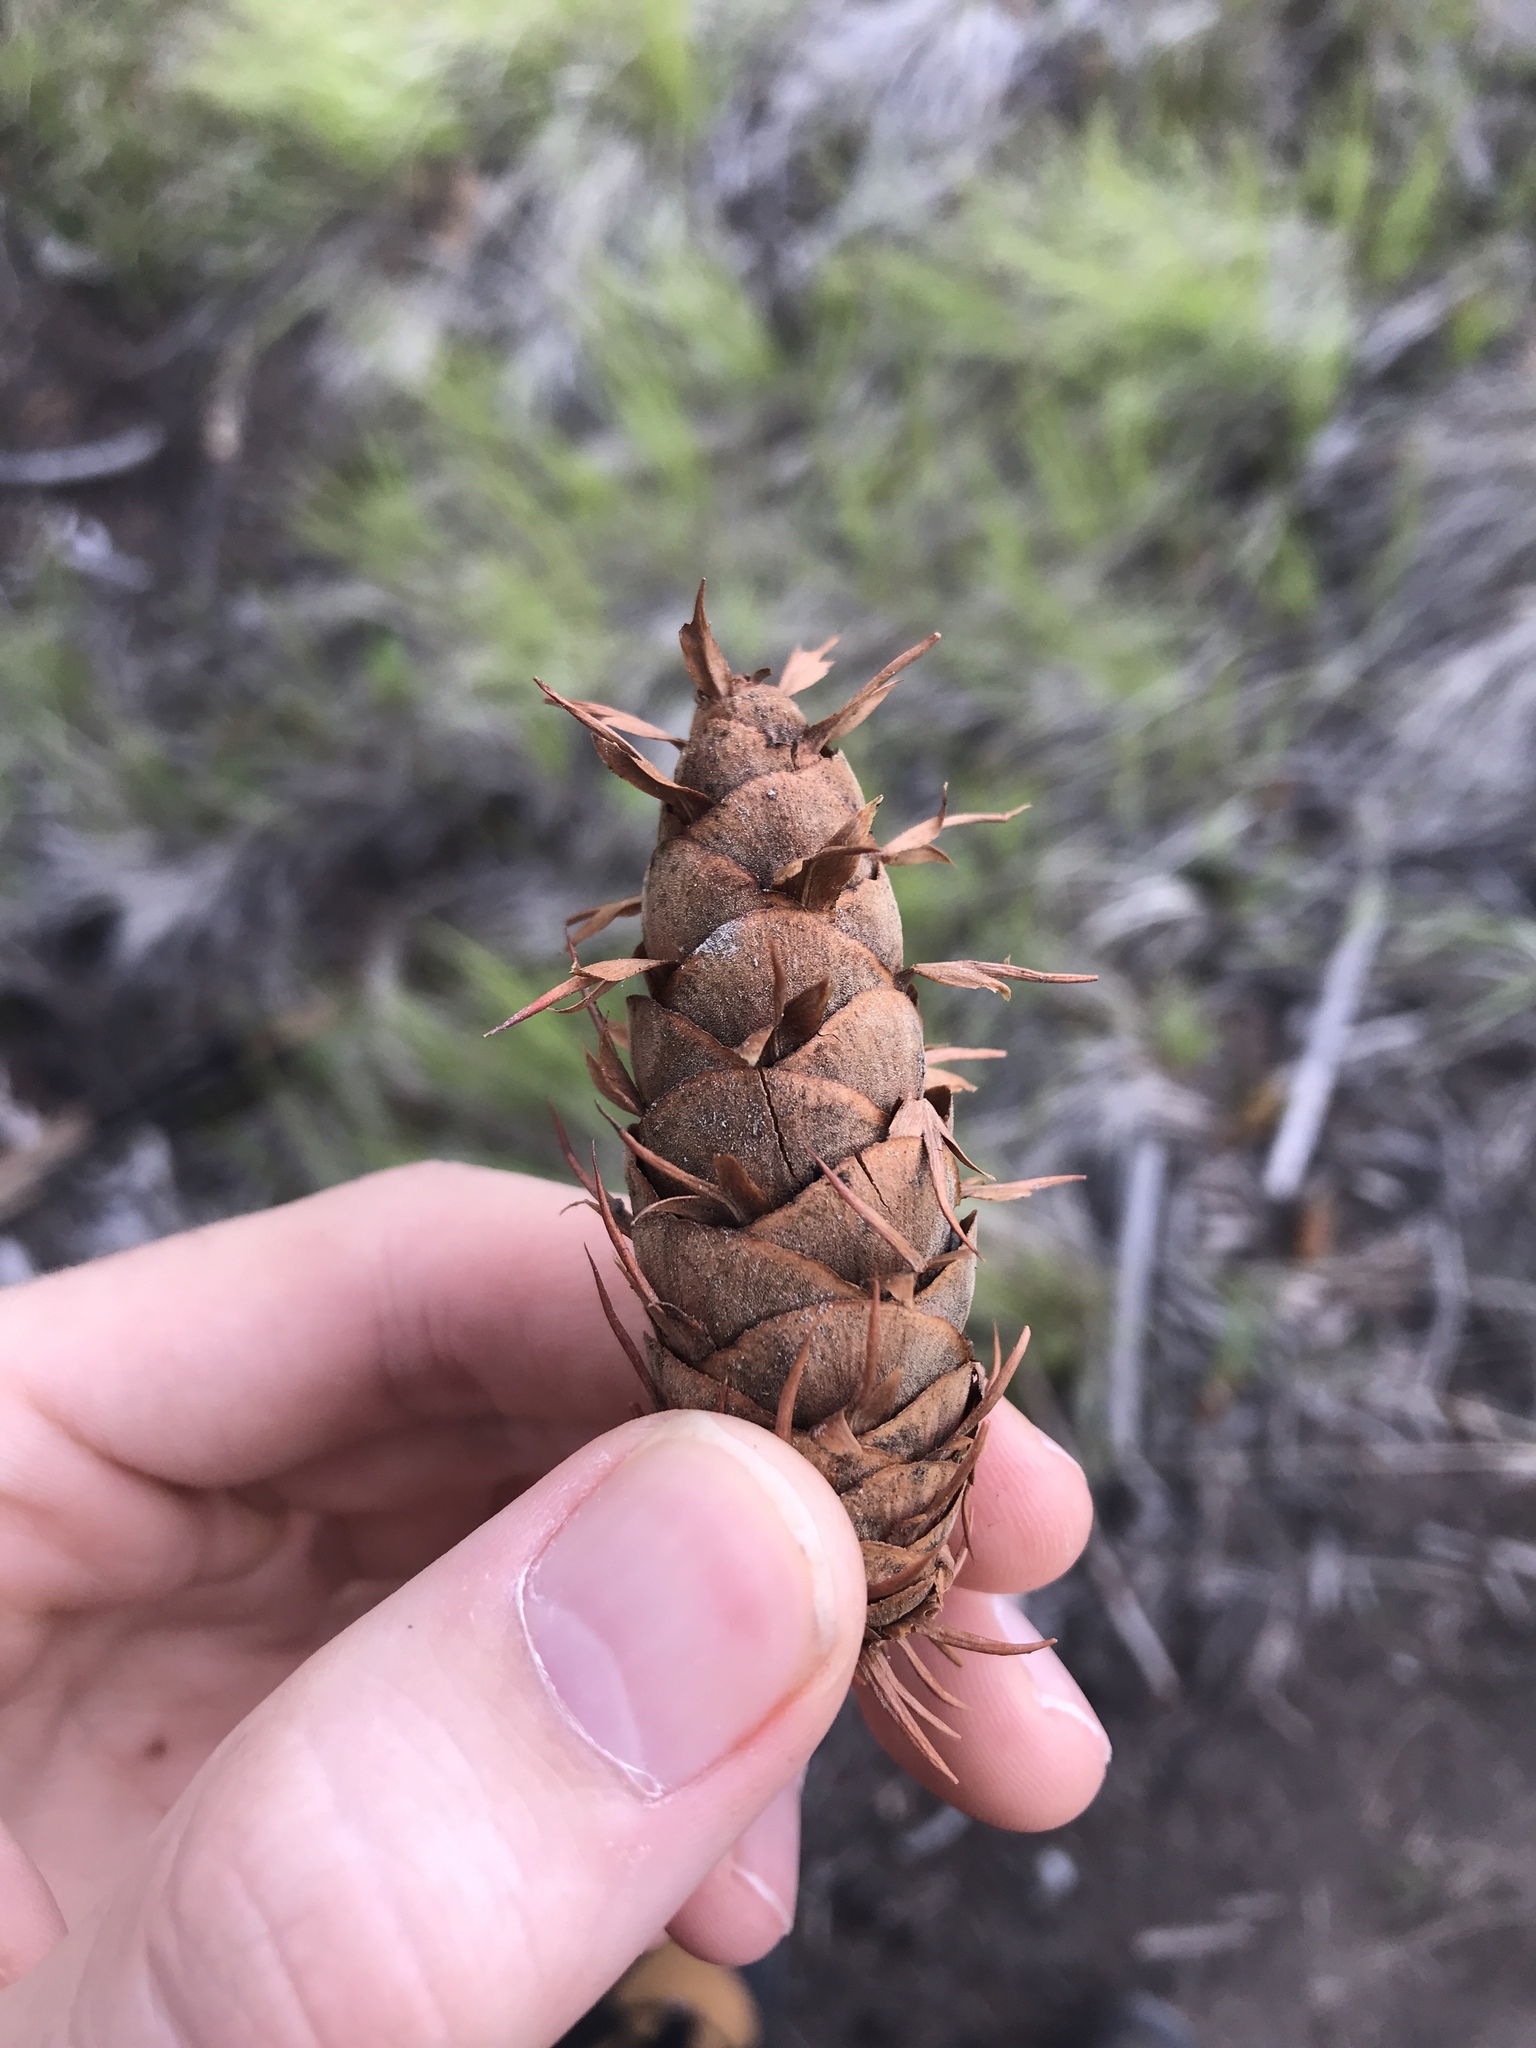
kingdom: Plantae
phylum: Tracheophyta
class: Pinopsida
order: Pinales
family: Pinaceae
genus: Pseudotsuga
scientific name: Pseudotsuga menziesii
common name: Douglas fir
